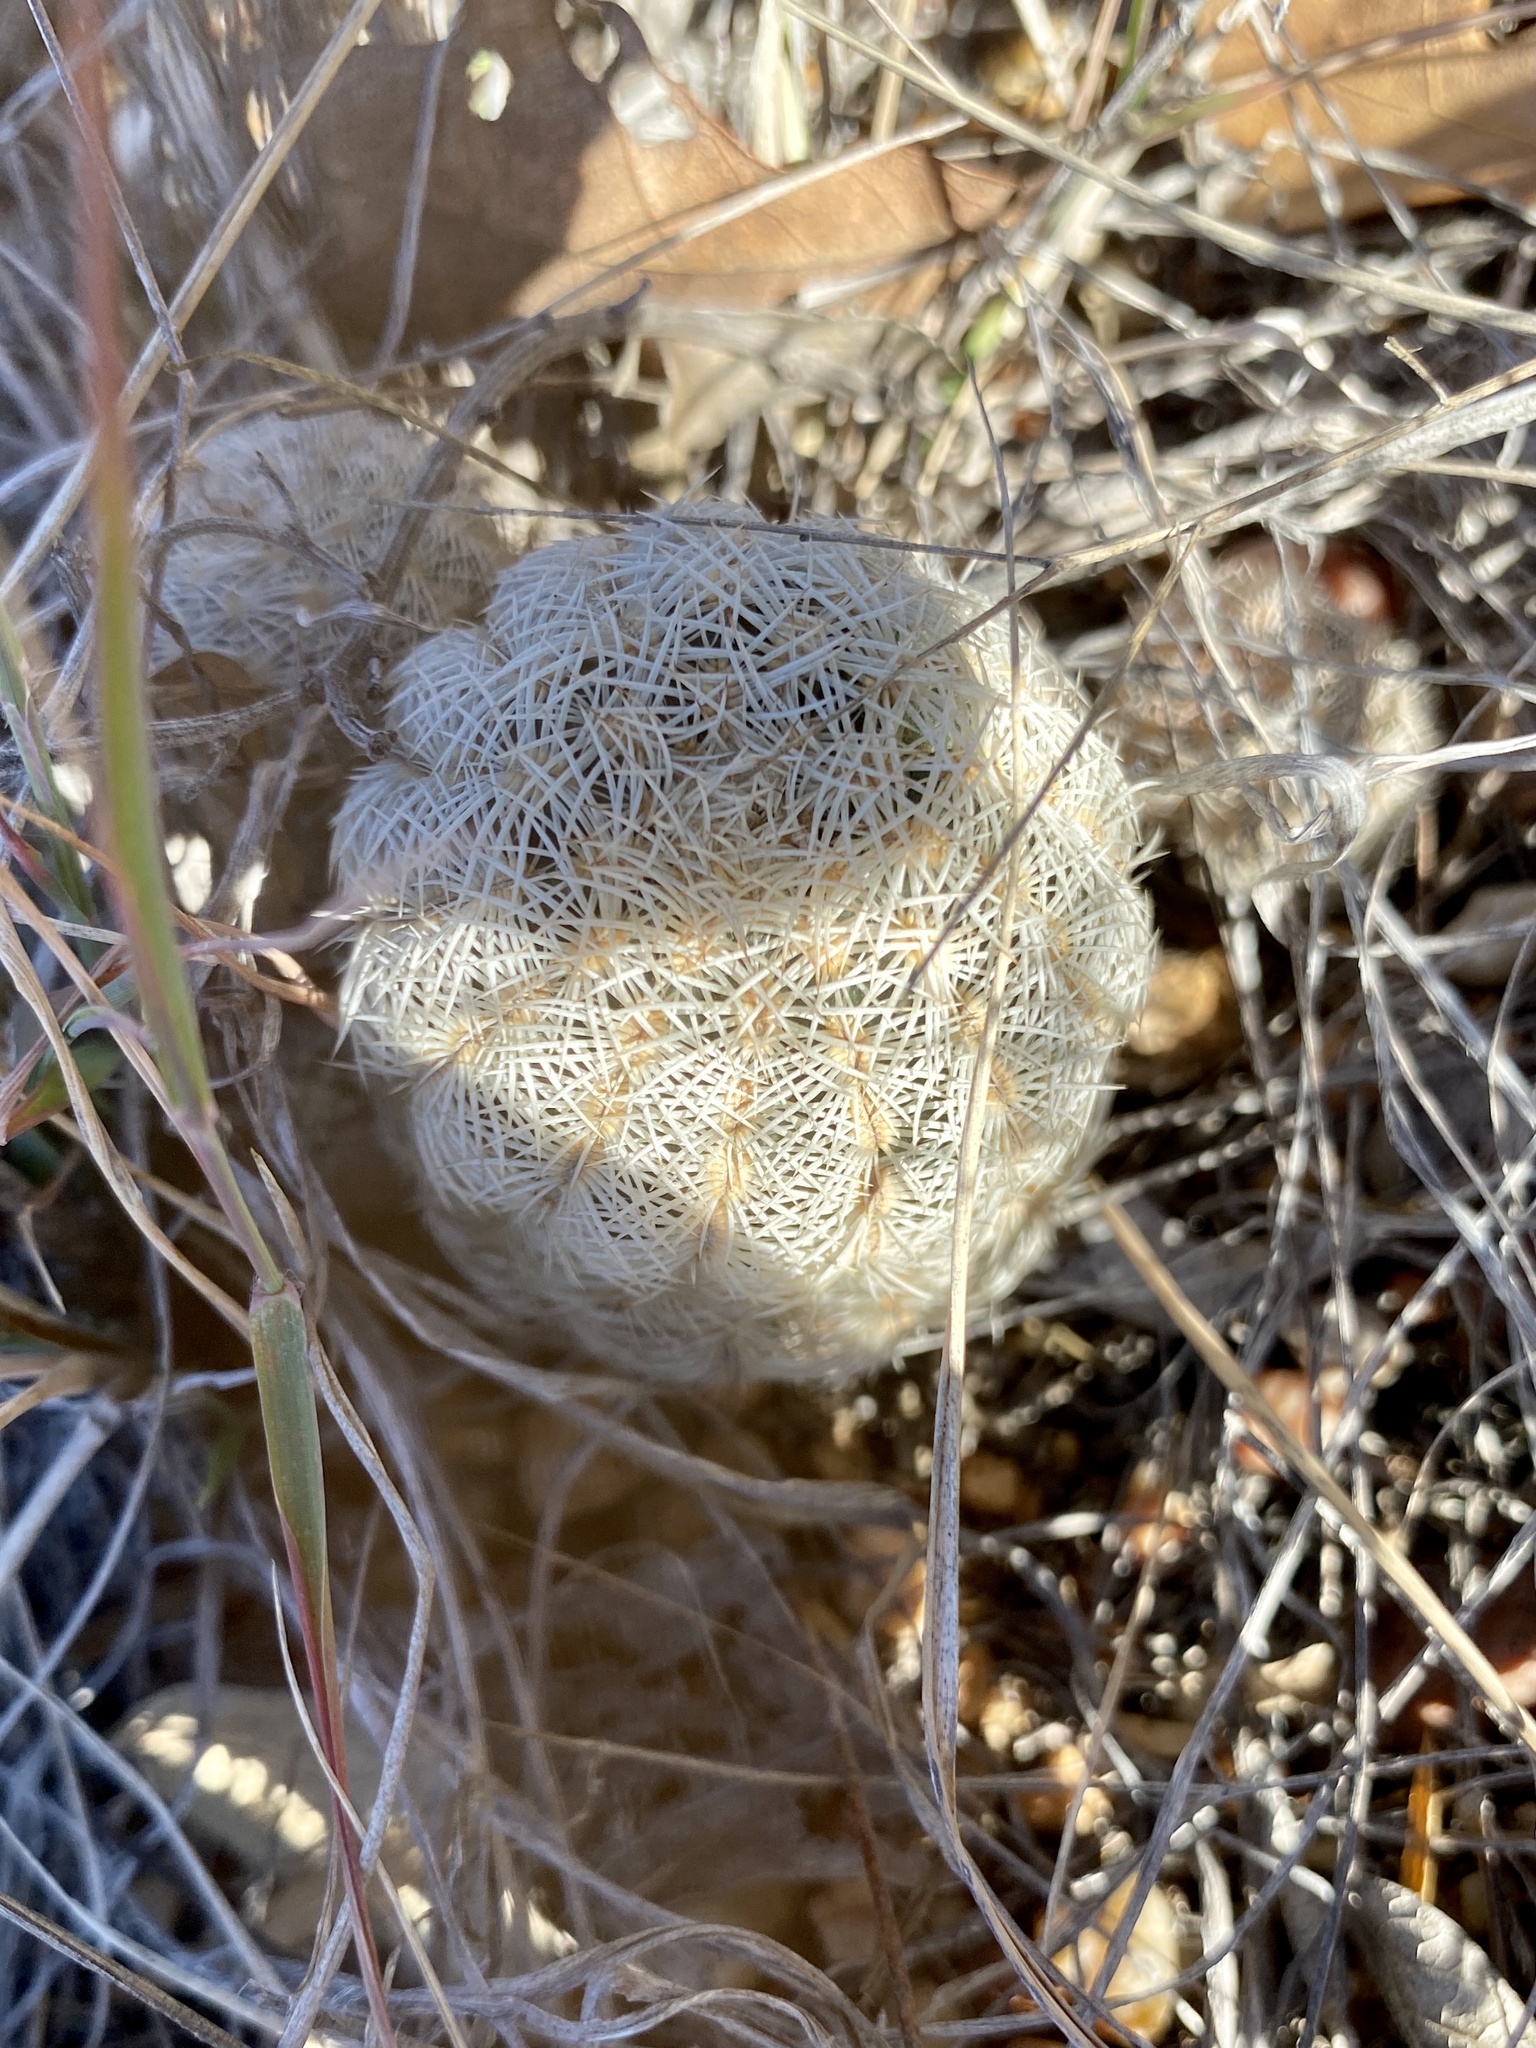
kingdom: Plantae
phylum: Tracheophyta
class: Magnoliopsida
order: Caryophyllales
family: Cactaceae
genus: Echinocereus
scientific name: Echinocereus reichenbachii
